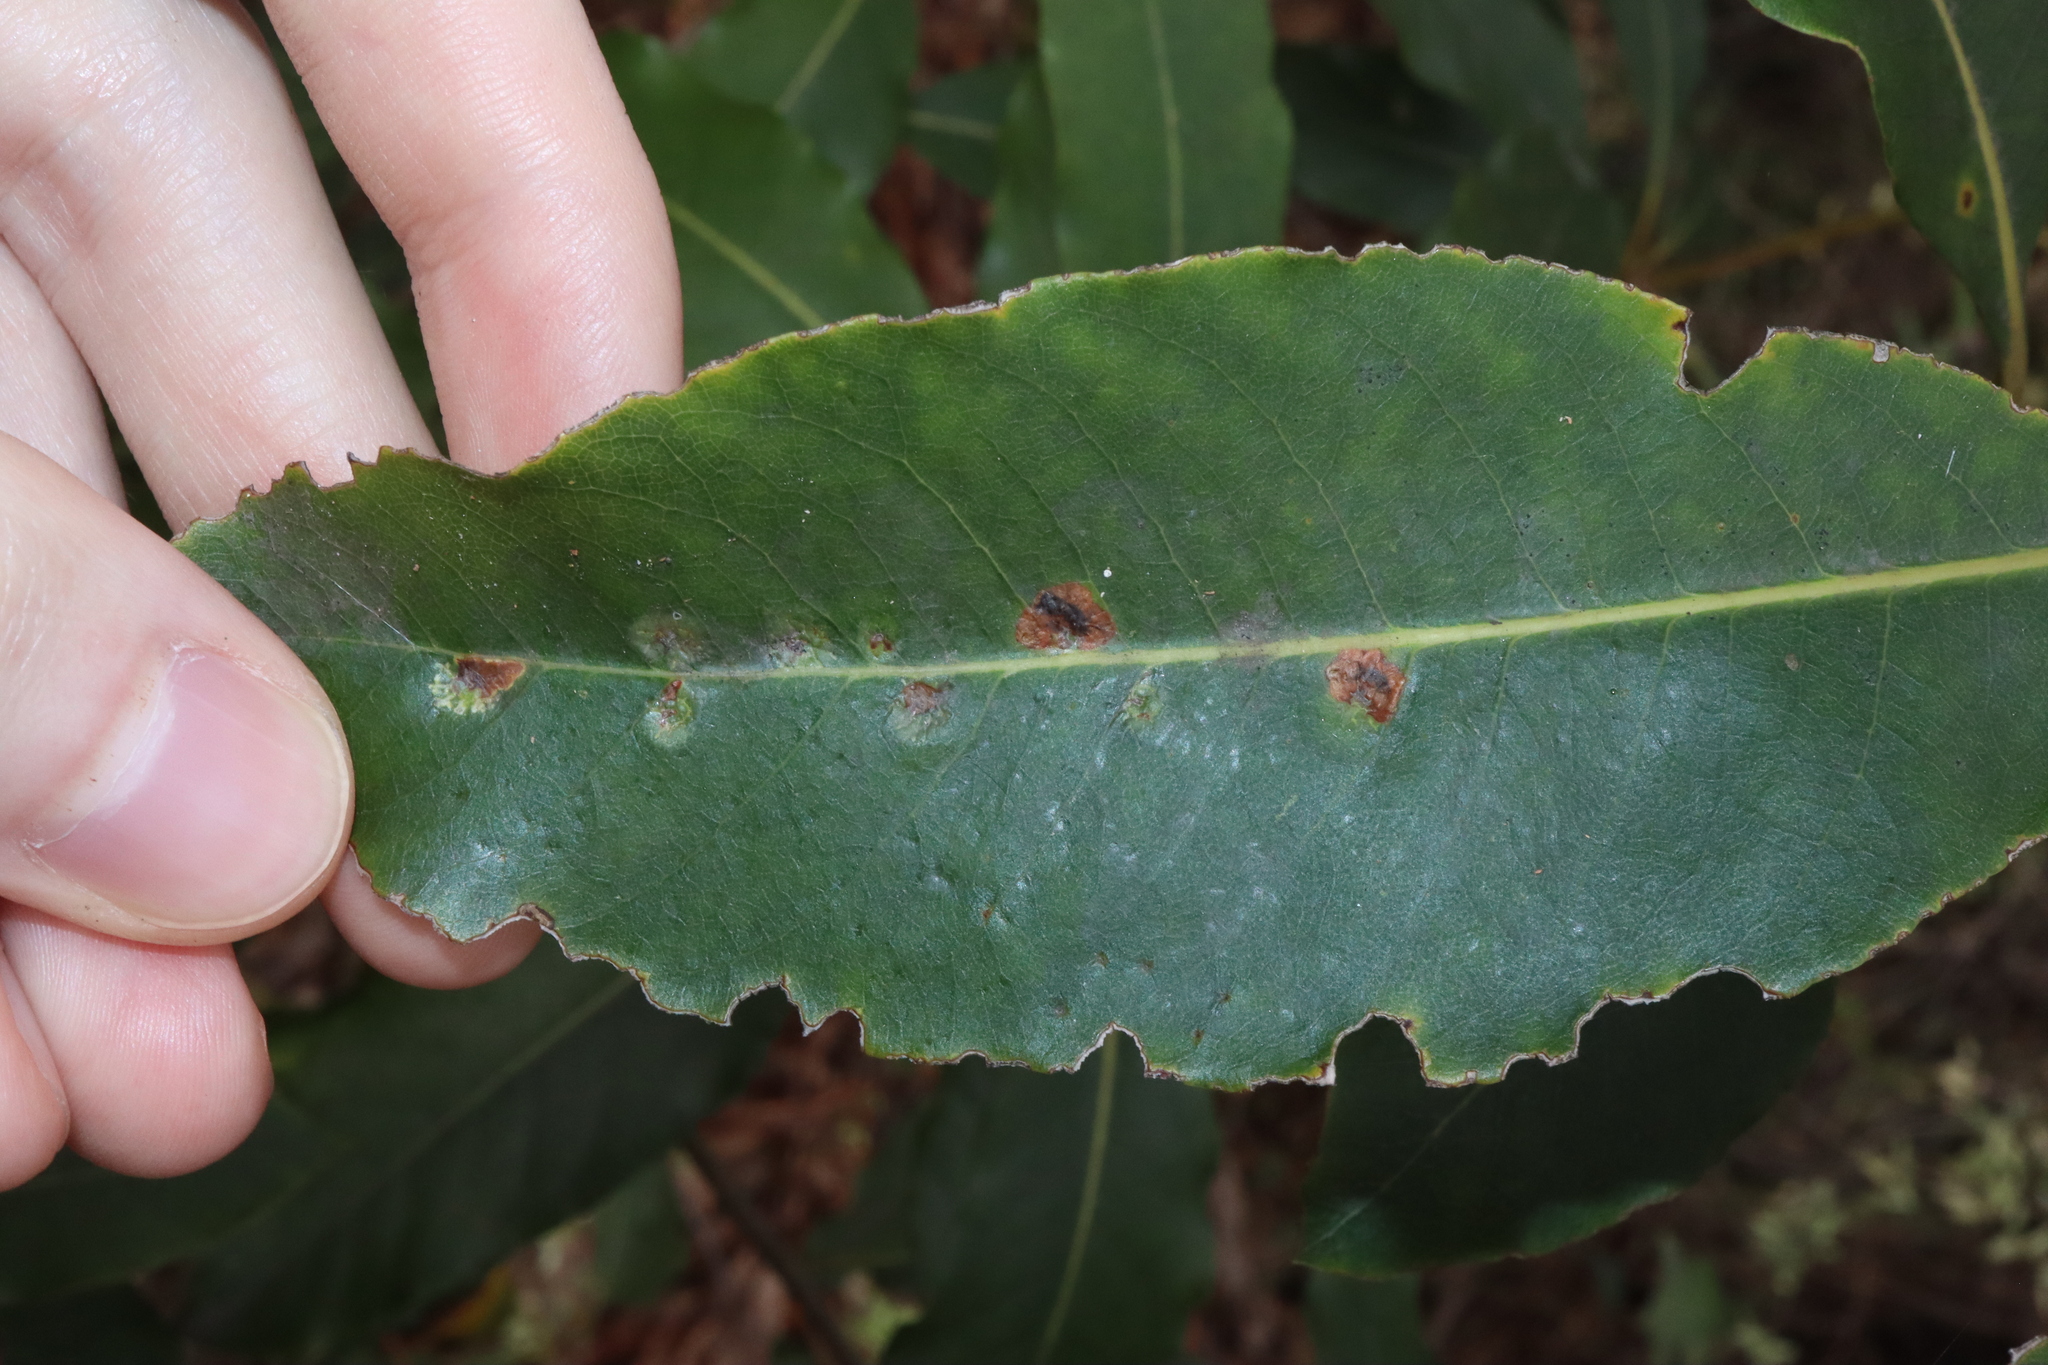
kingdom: Animalia
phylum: Arthropoda
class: Insecta
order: Diptera
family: Agromyzidae
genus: Phytoliriomyza
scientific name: Phytoliriomyza pittosporophylli
